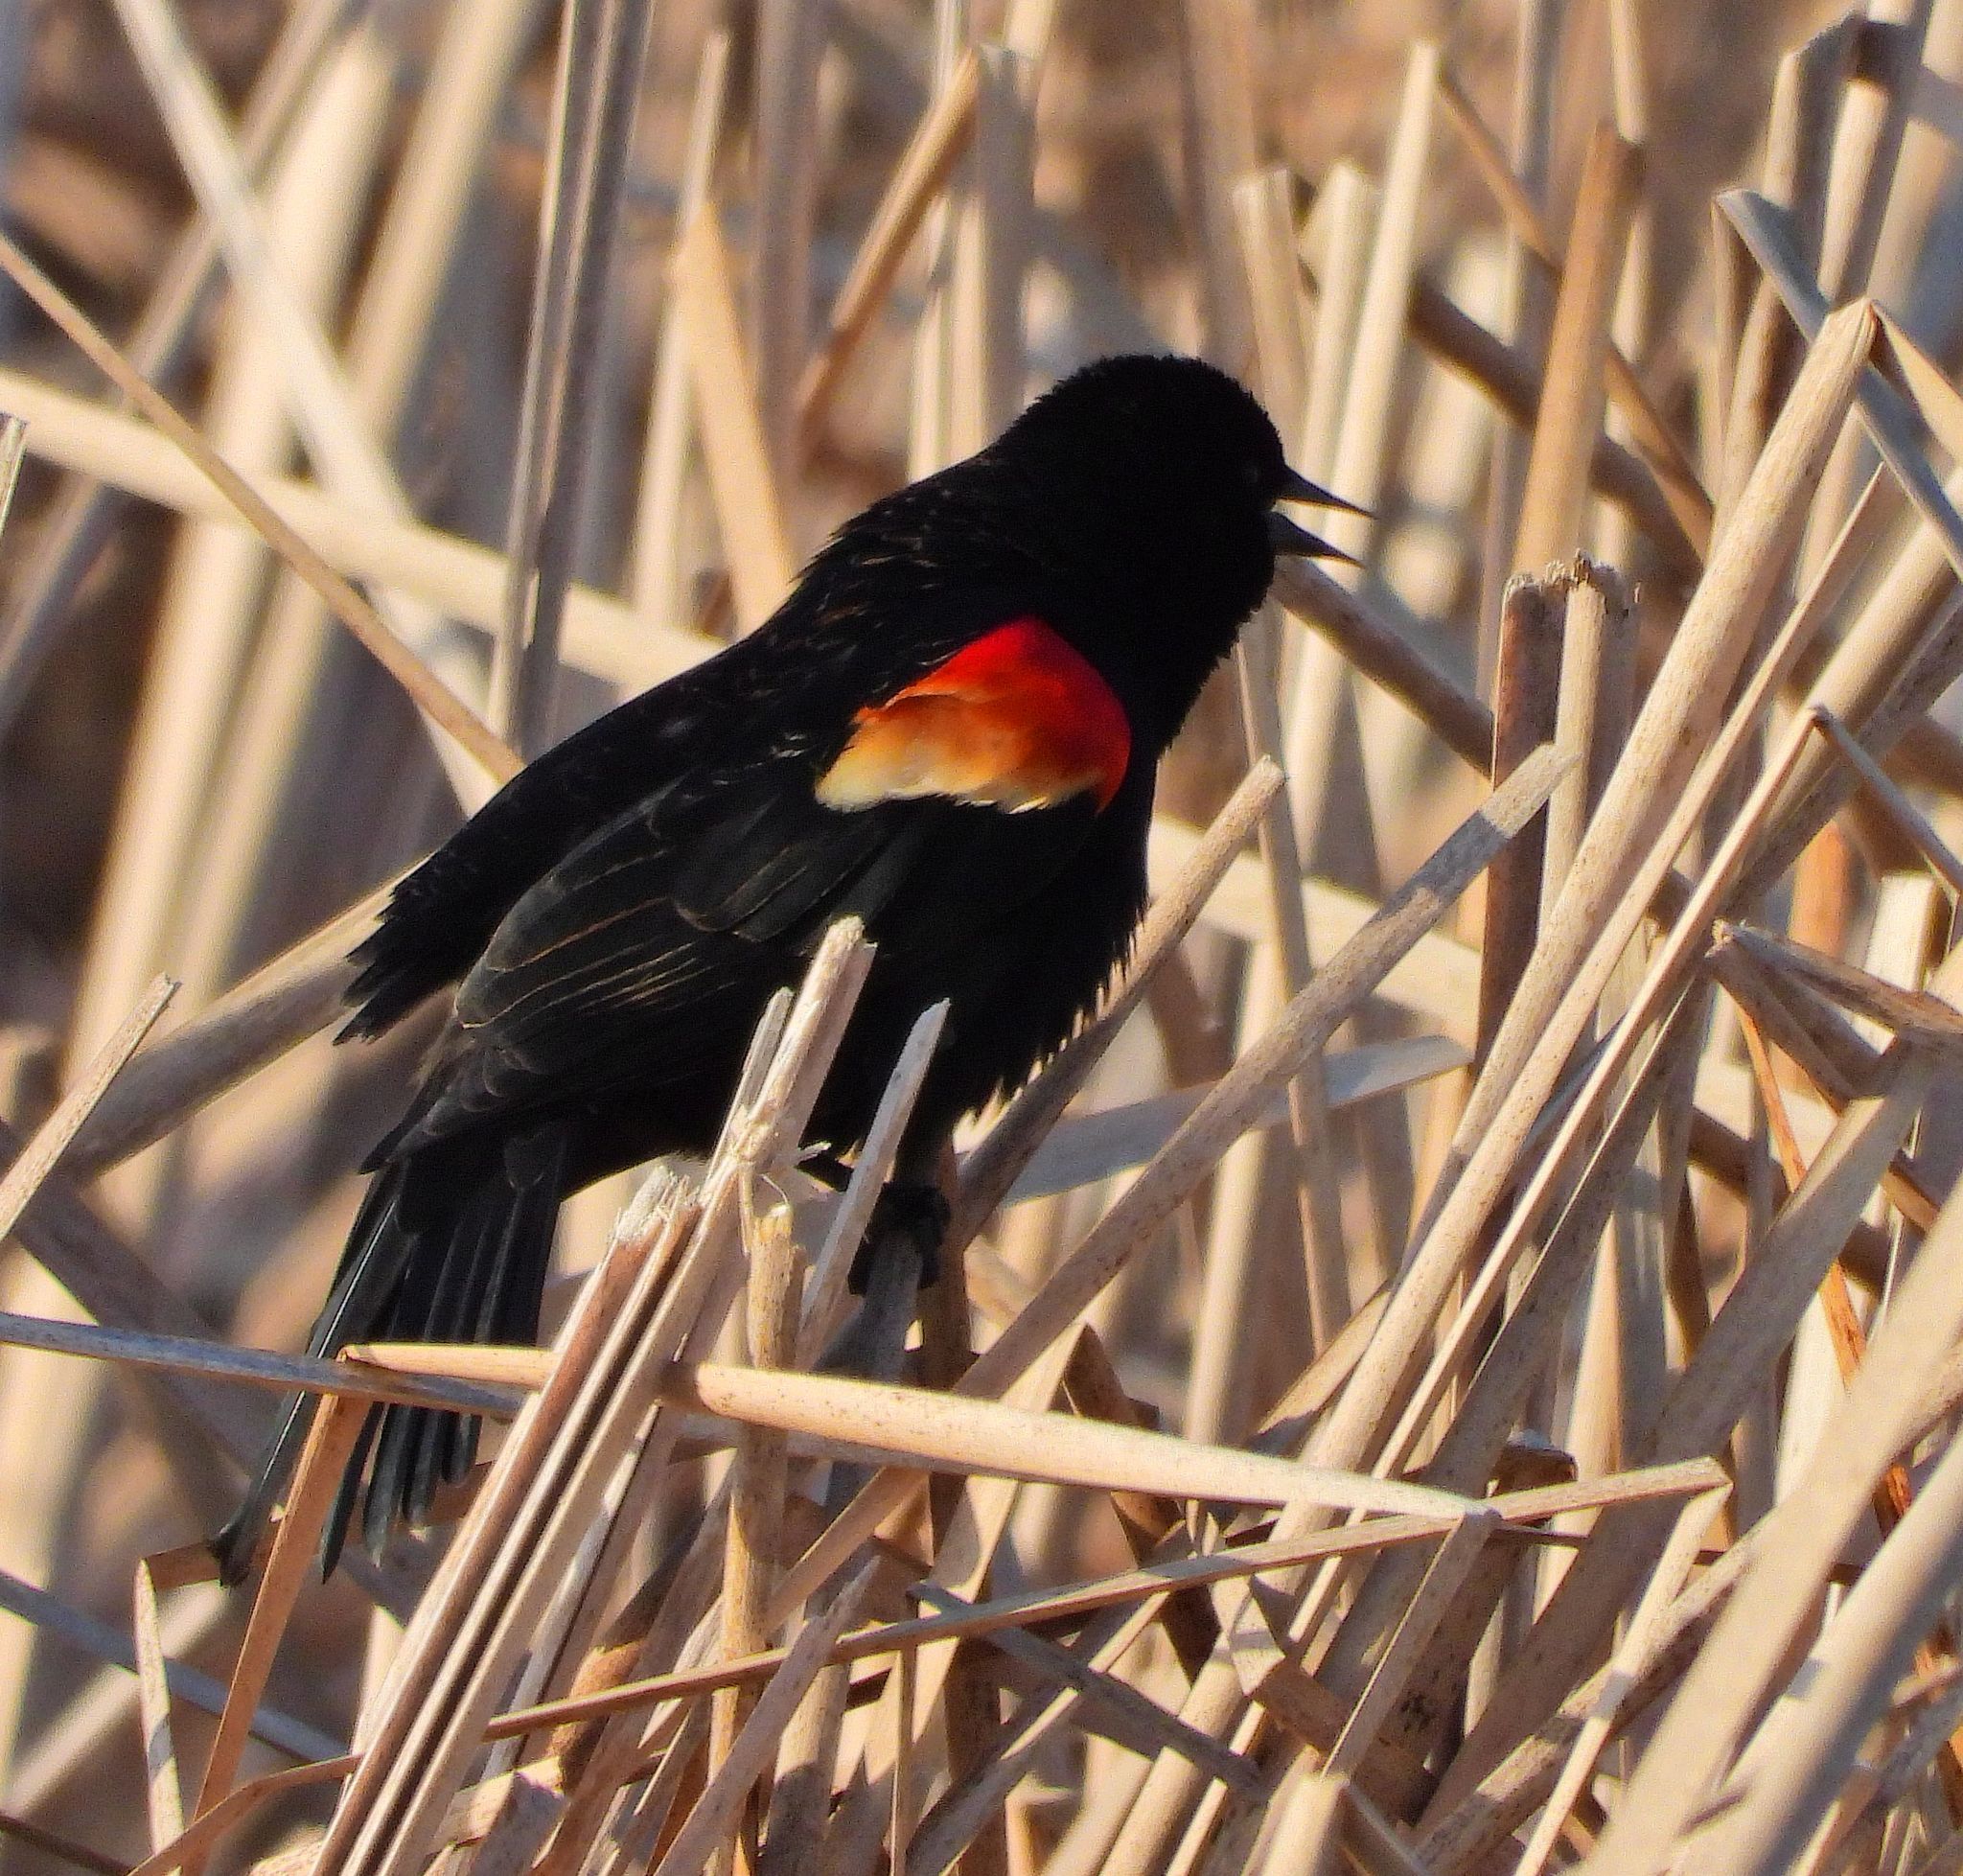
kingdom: Animalia
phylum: Chordata
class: Aves
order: Passeriformes
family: Icteridae
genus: Agelaius
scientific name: Agelaius phoeniceus
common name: Red-winged blackbird
